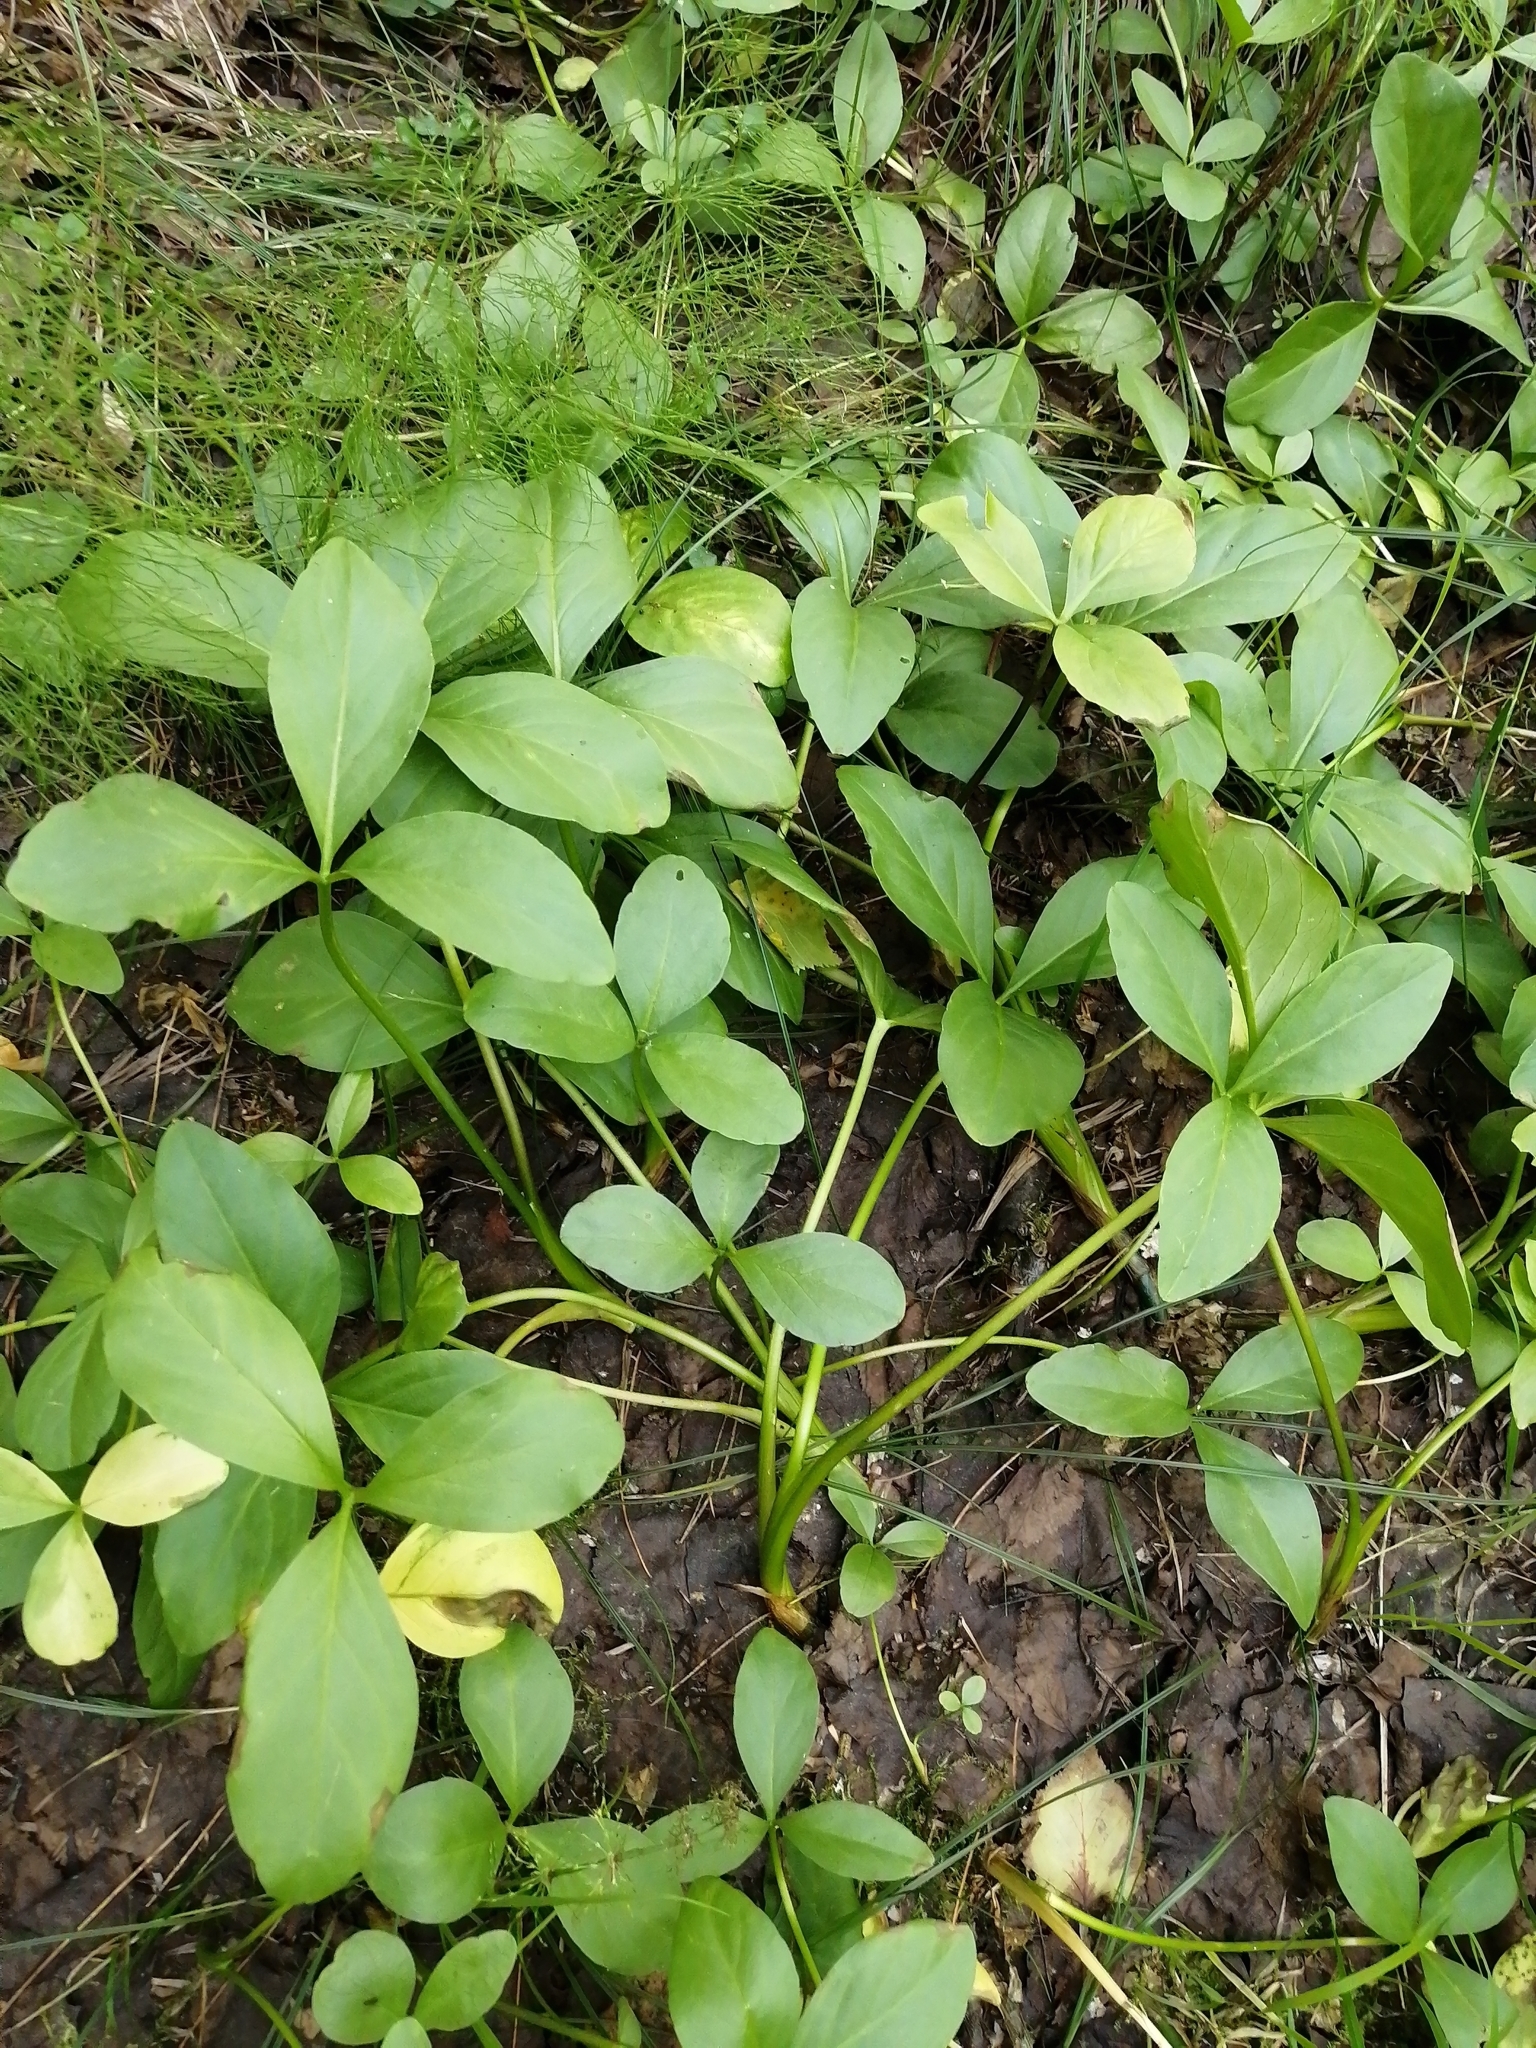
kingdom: Plantae
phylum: Tracheophyta
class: Magnoliopsida
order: Asterales
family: Menyanthaceae
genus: Menyanthes
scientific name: Menyanthes trifoliata
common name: Bogbean
